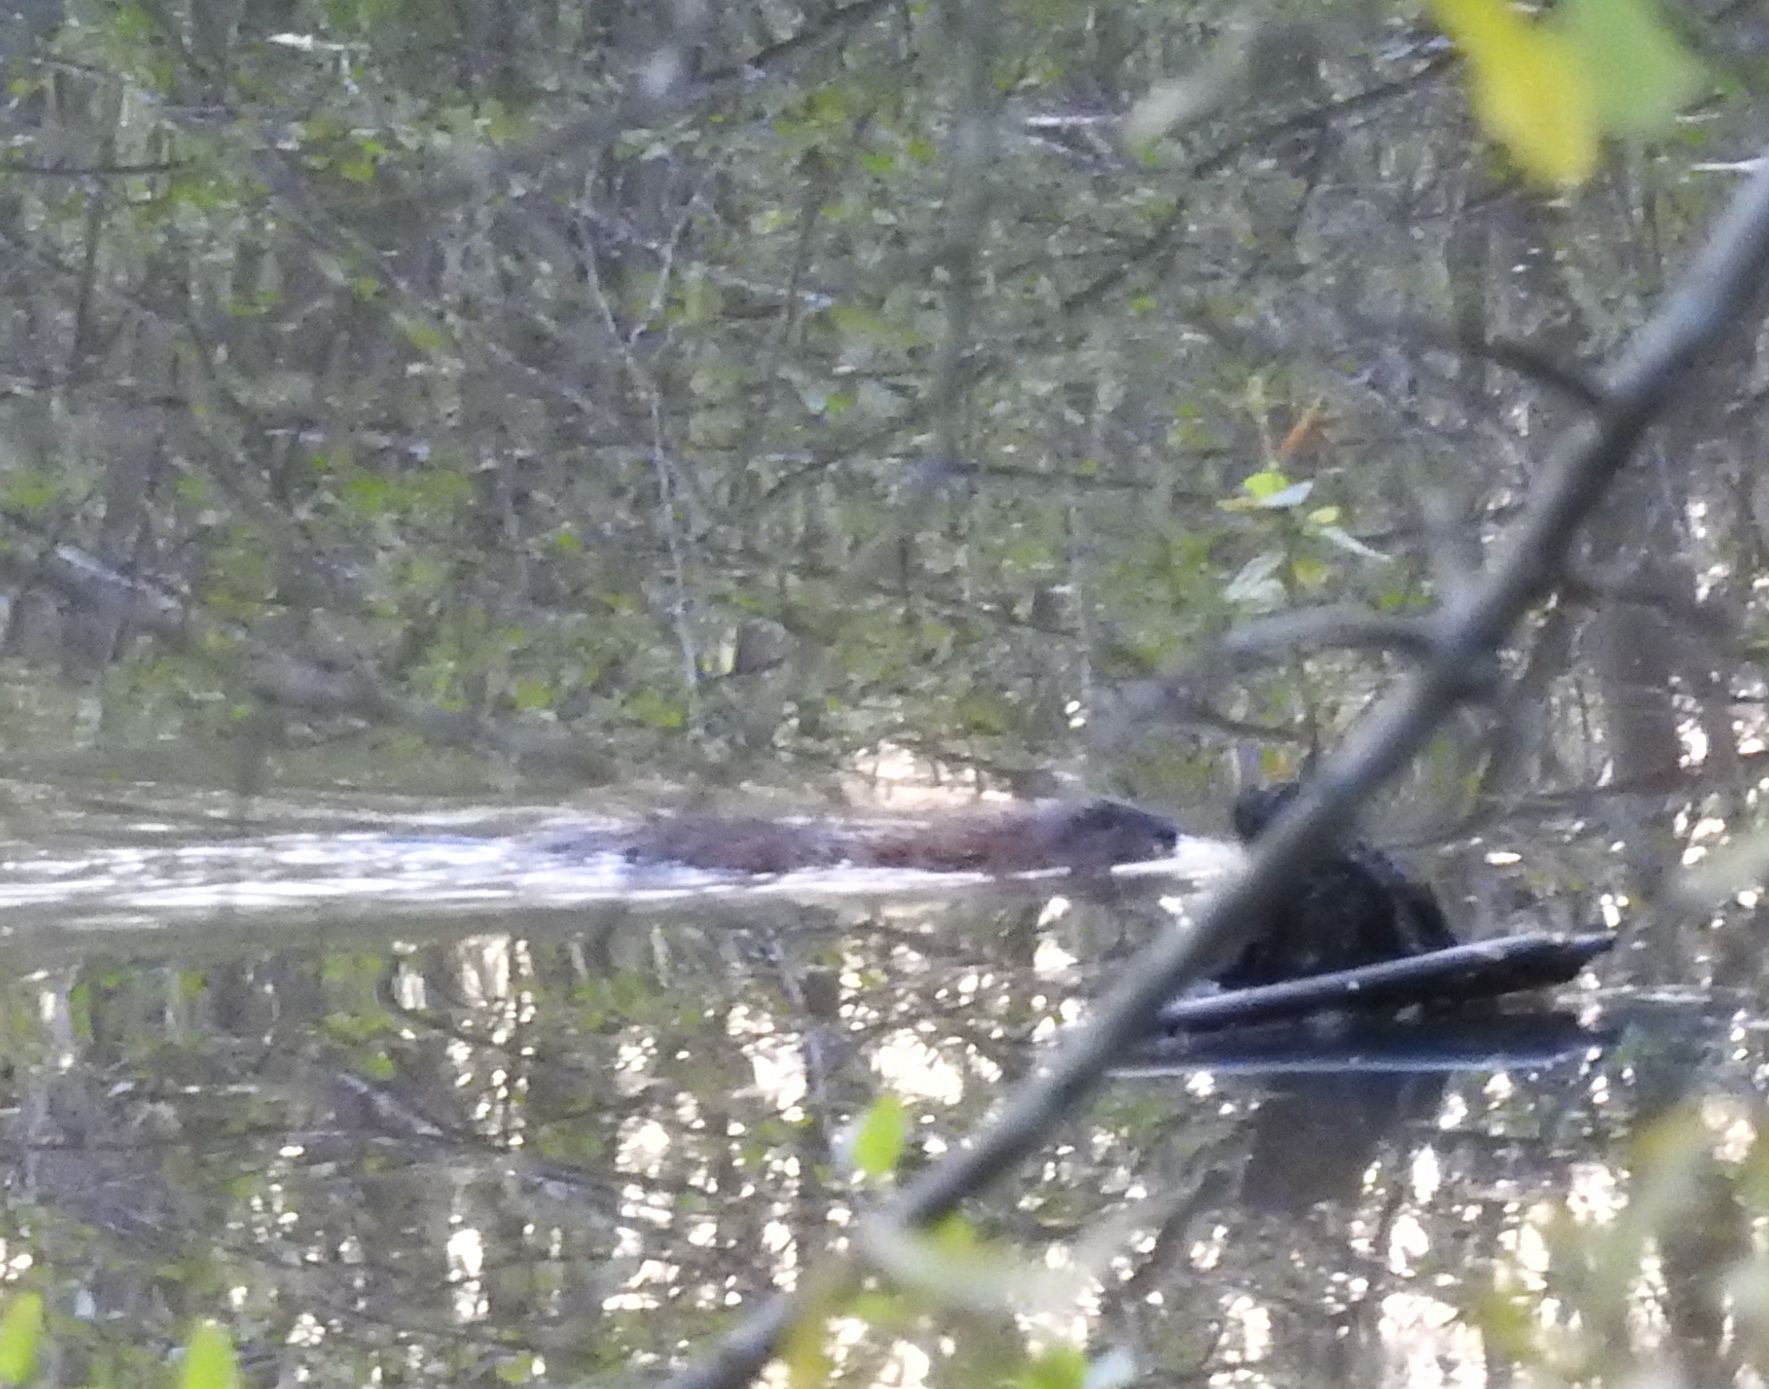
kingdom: Animalia
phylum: Chordata
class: Mammalia
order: Rodentia
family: Cricetidae
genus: Ondatra
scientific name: Ondatra zibethicus
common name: Muskrat
